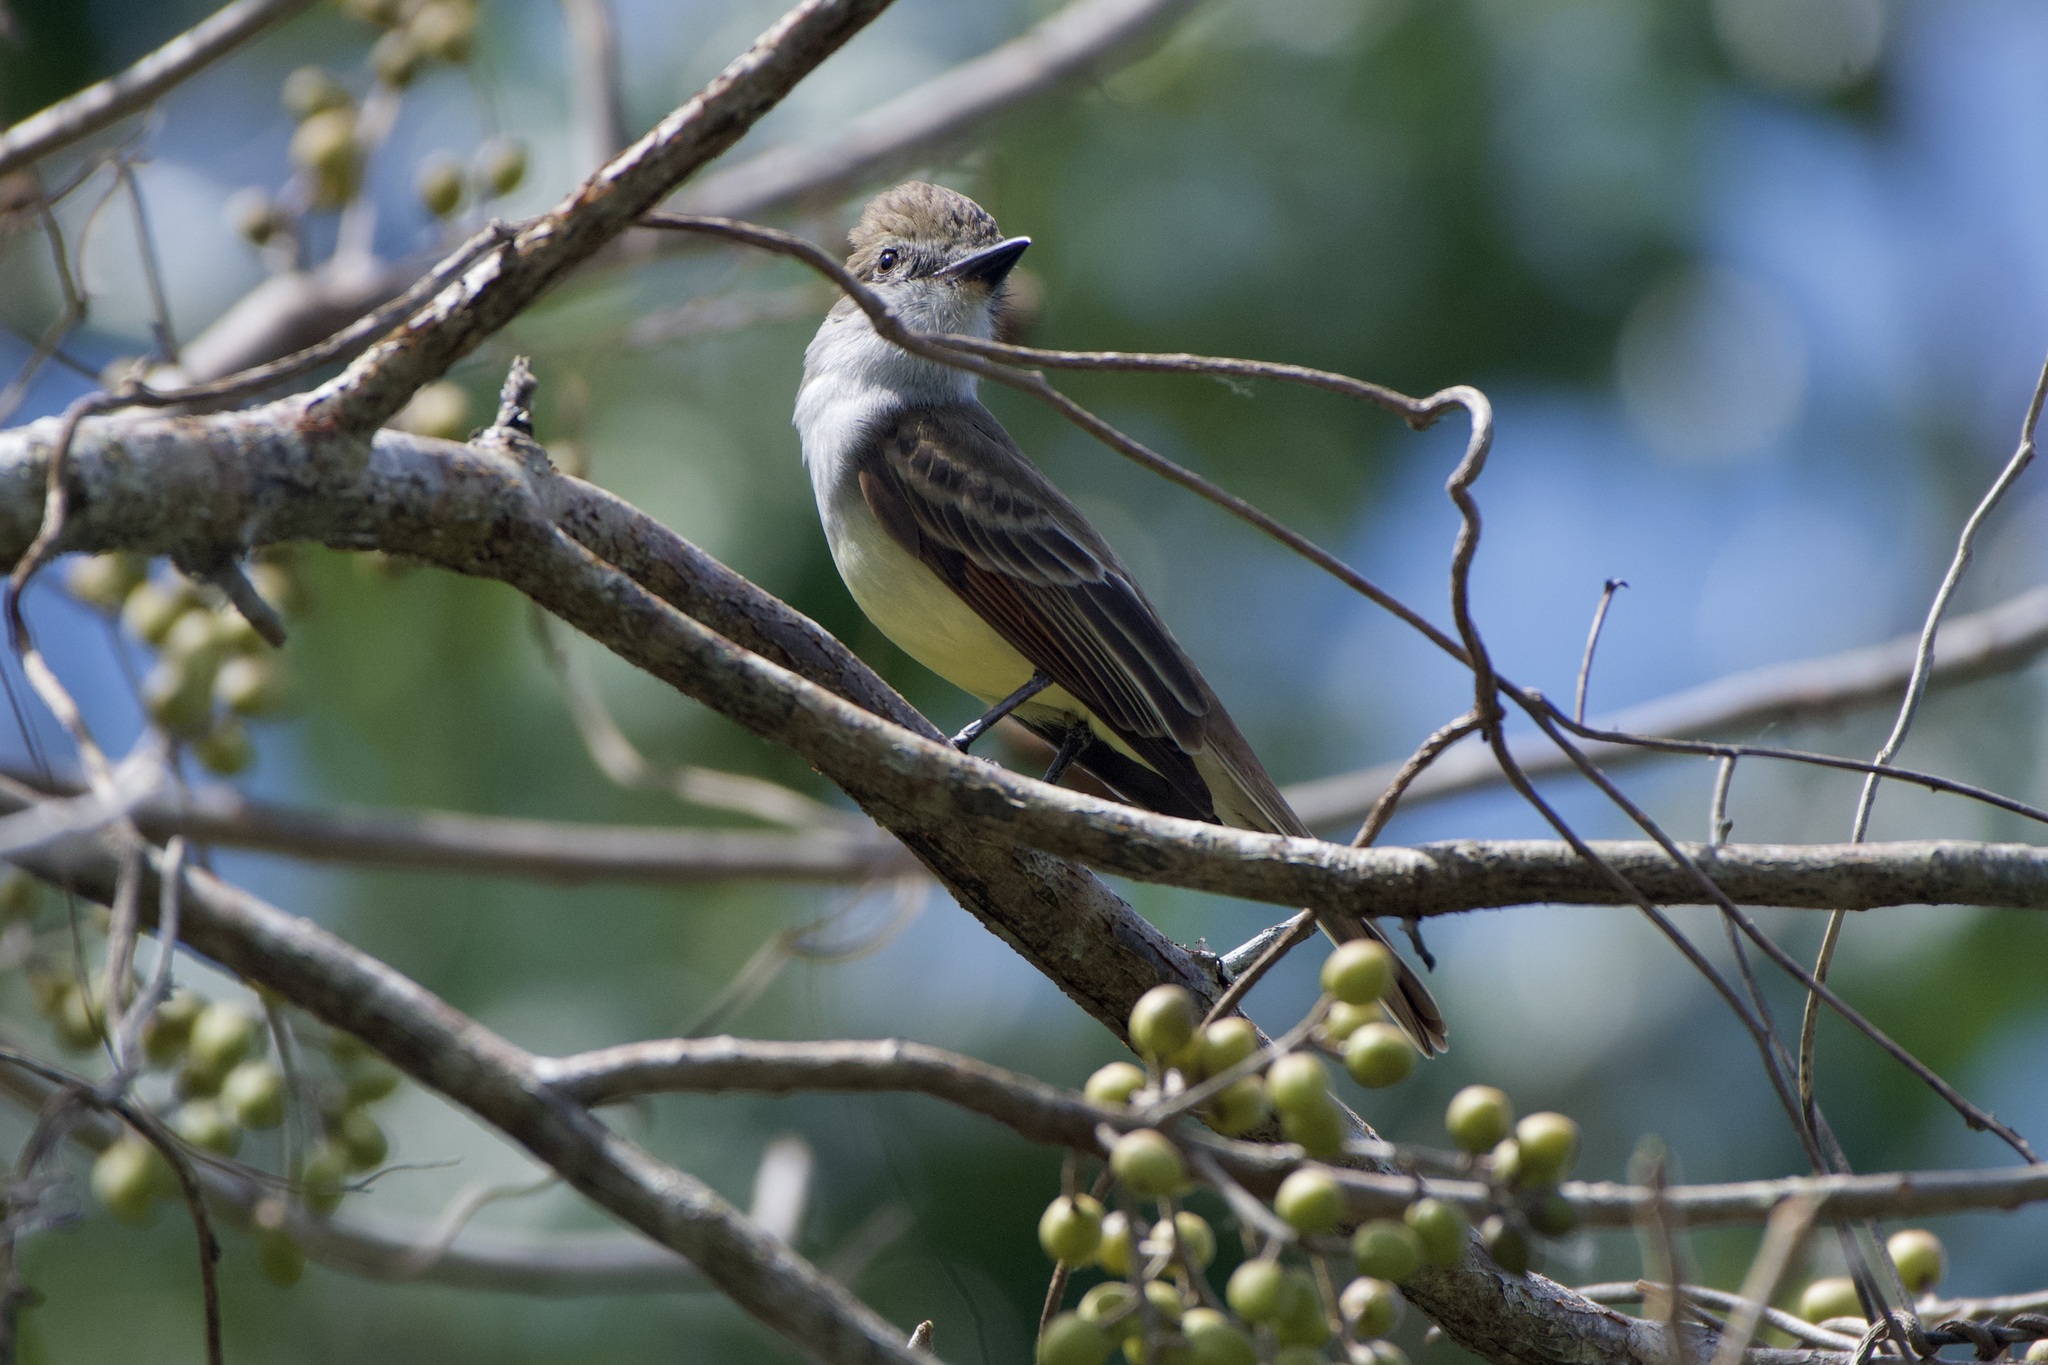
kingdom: Animalia
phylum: Chordata
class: Aves
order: Passeriformes
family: Tyrannidae
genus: Myiarchus
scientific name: Myiarchus tyrannulus
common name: Brown-crested flycatcher
